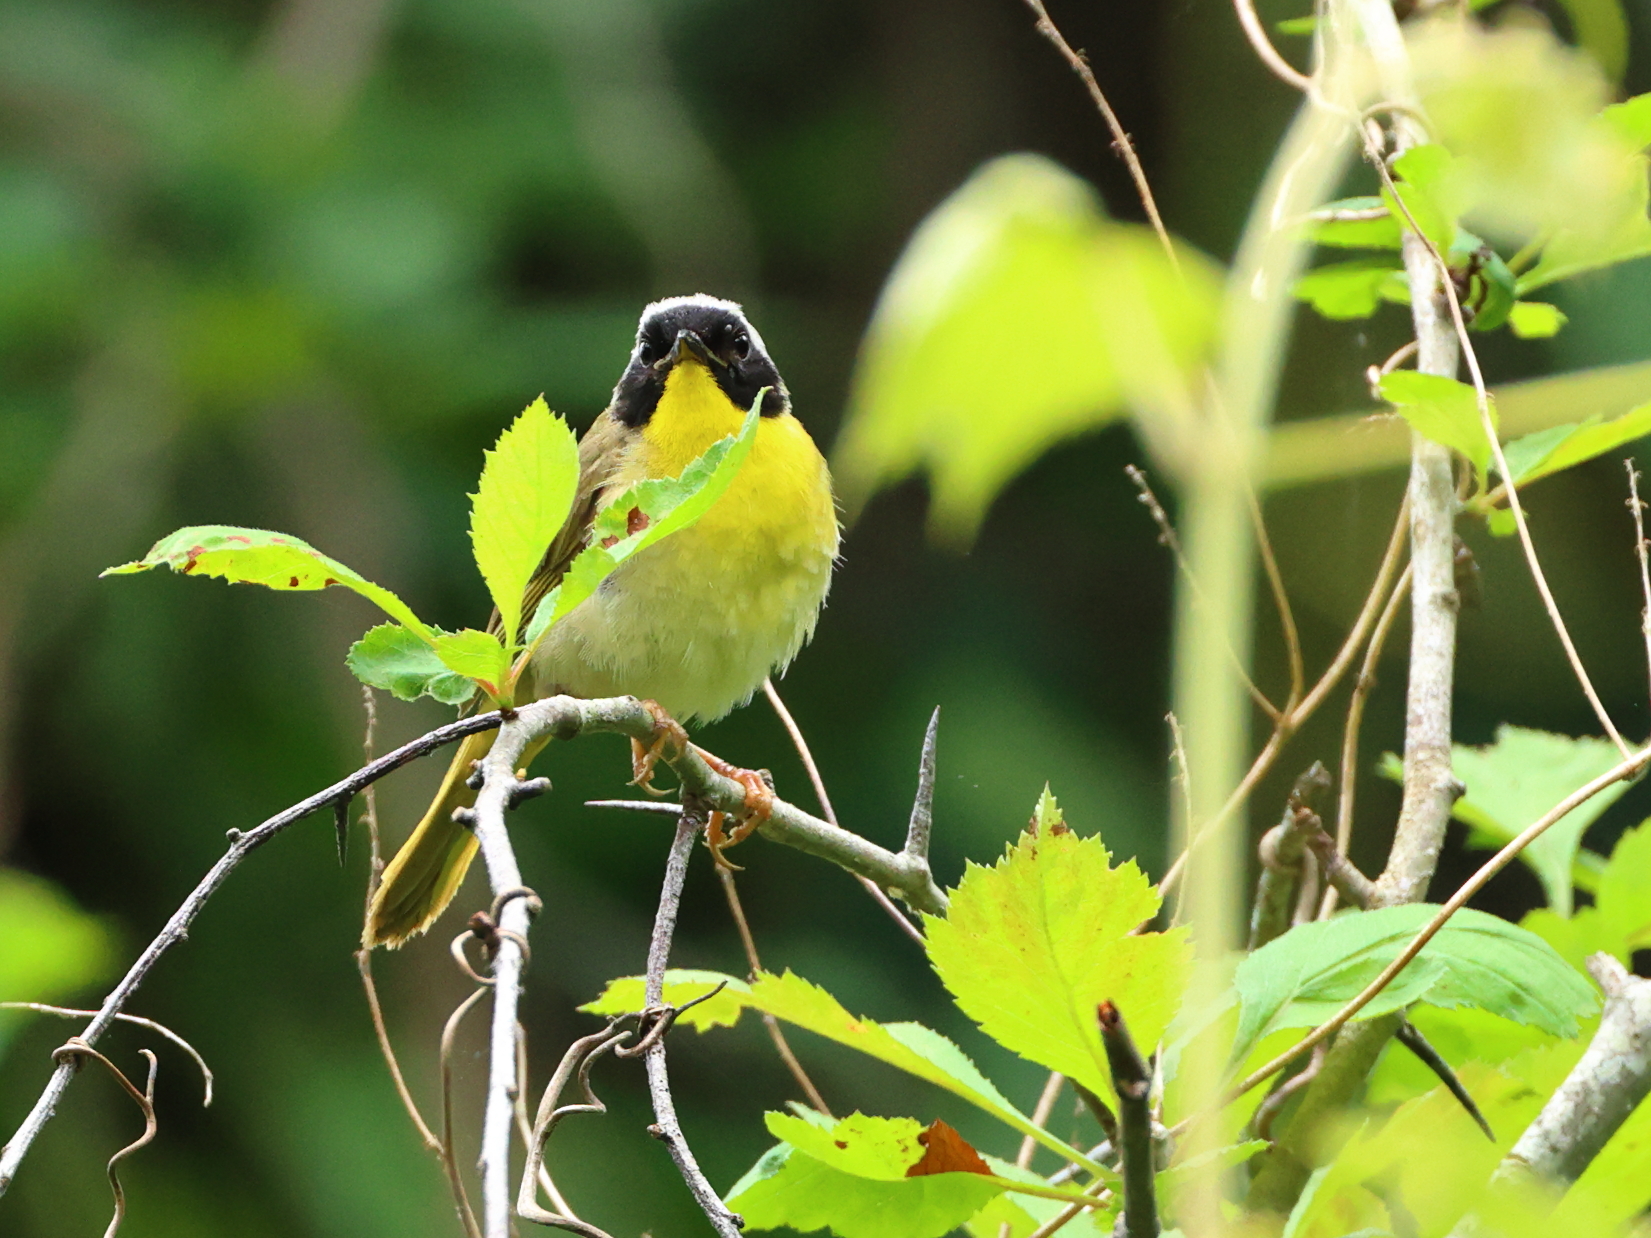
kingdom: Animalia
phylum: Chordata
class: Aves
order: Passeriformes
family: Parulidae
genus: Geothlypis
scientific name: Geothlypis trichas
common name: Common yellowthroat
